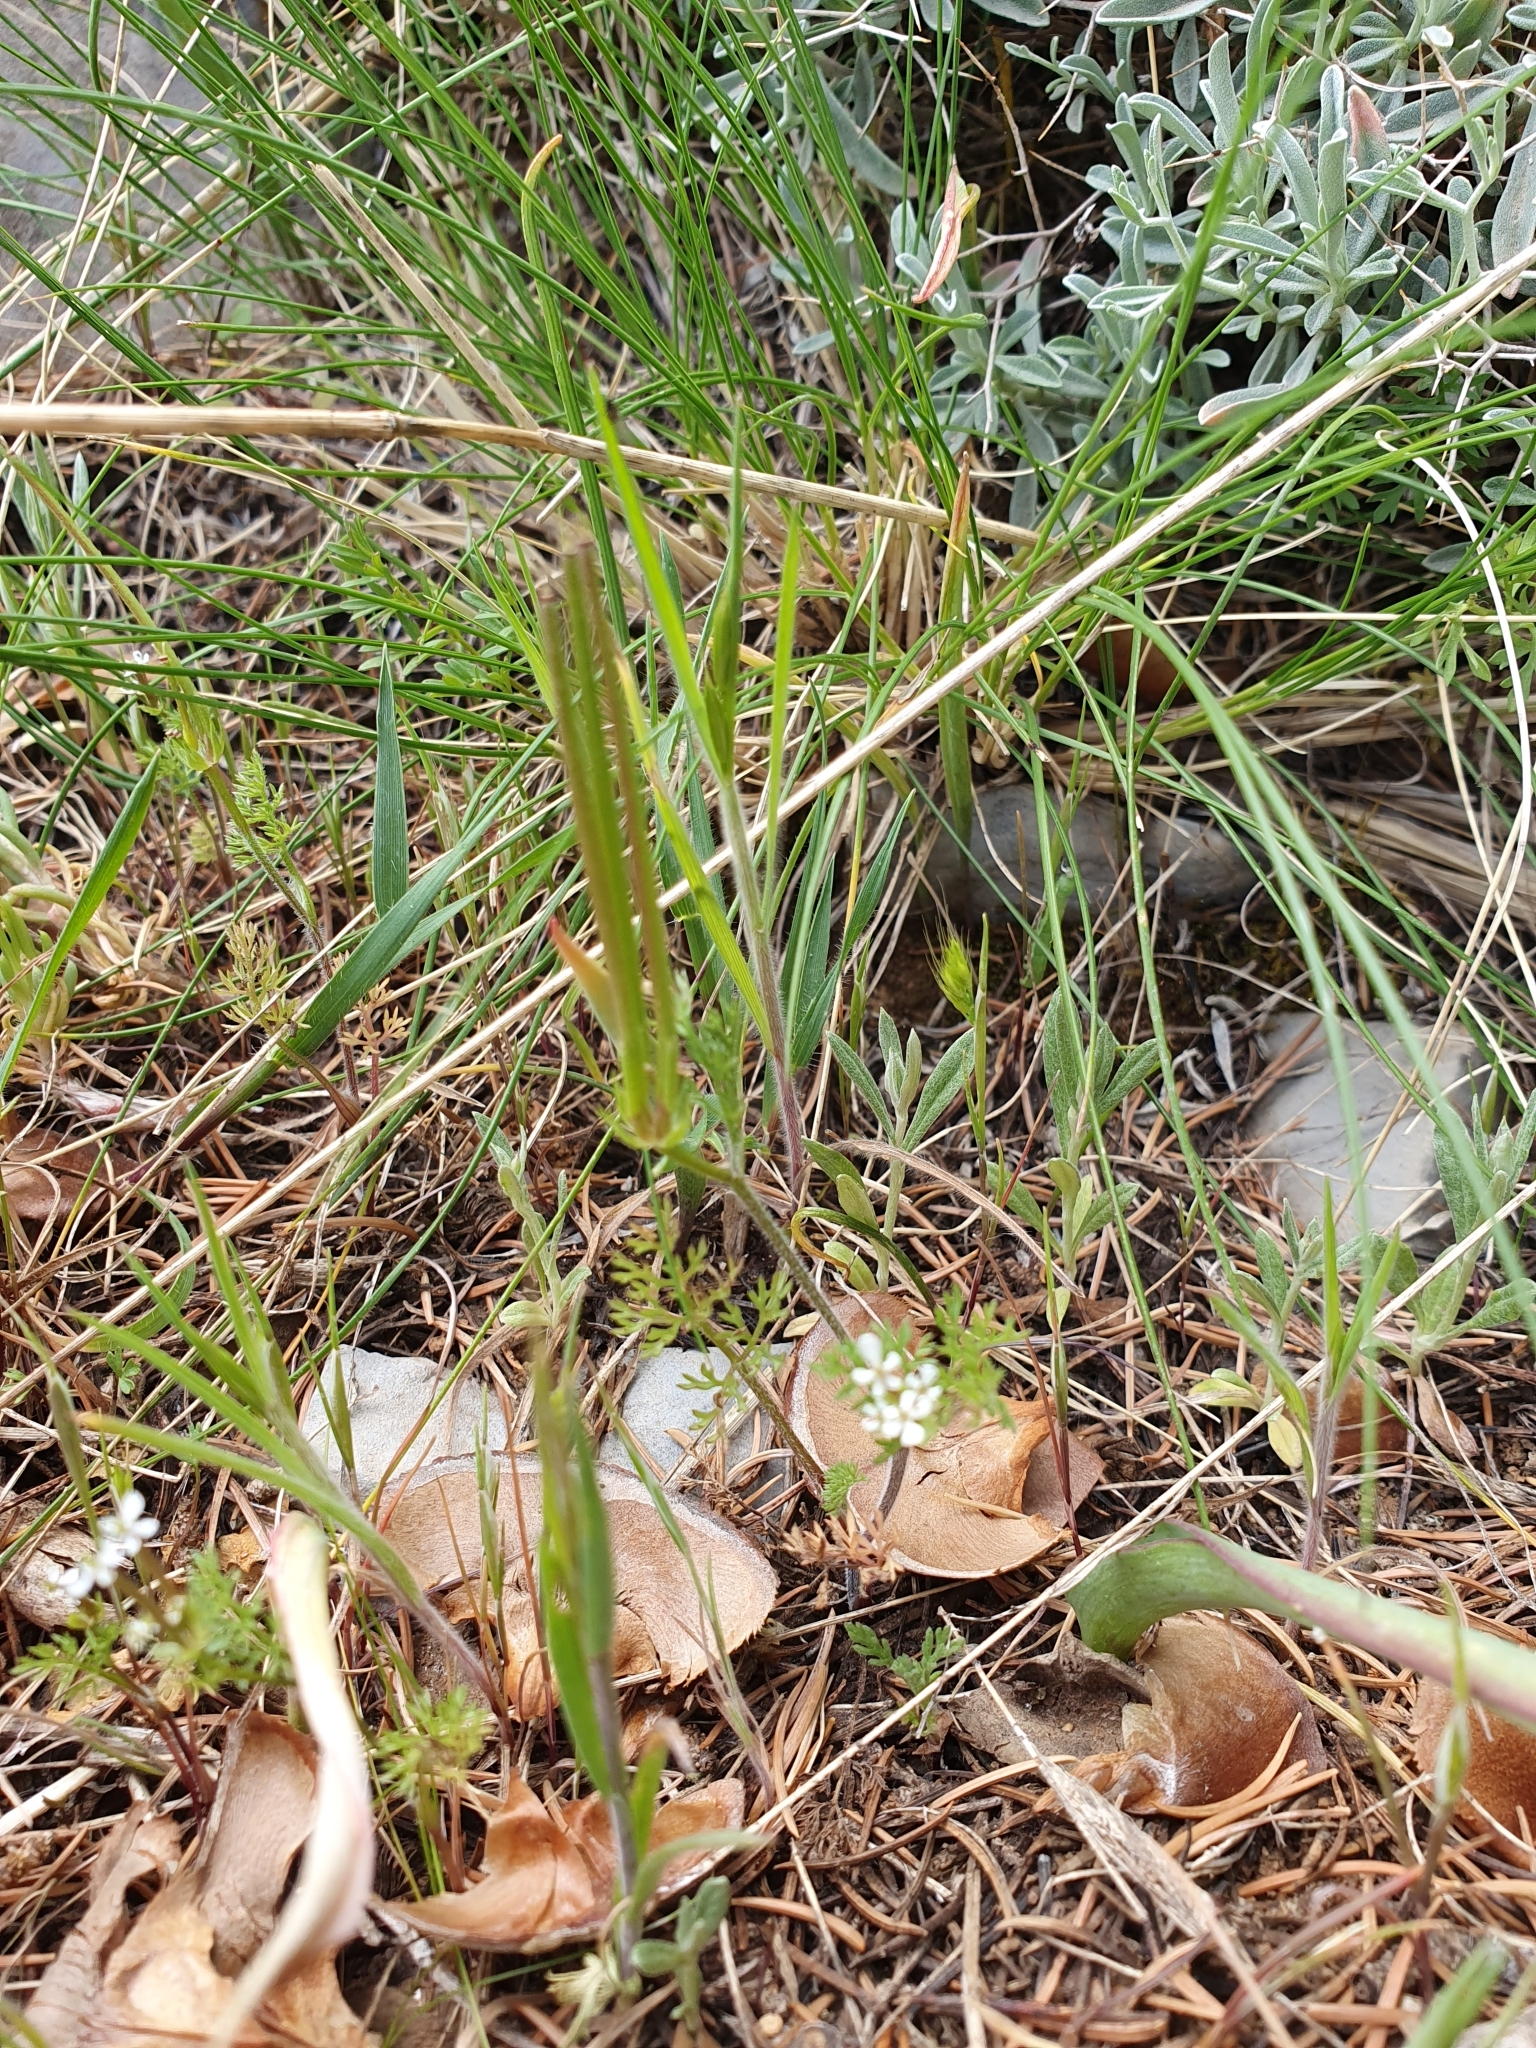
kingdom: Plantae
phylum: Tracheophyta
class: Magnoliopsida
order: Apiales
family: Apiaceae
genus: Scandix
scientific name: Scandix pecten-veneris
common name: Shepherd's-needle
